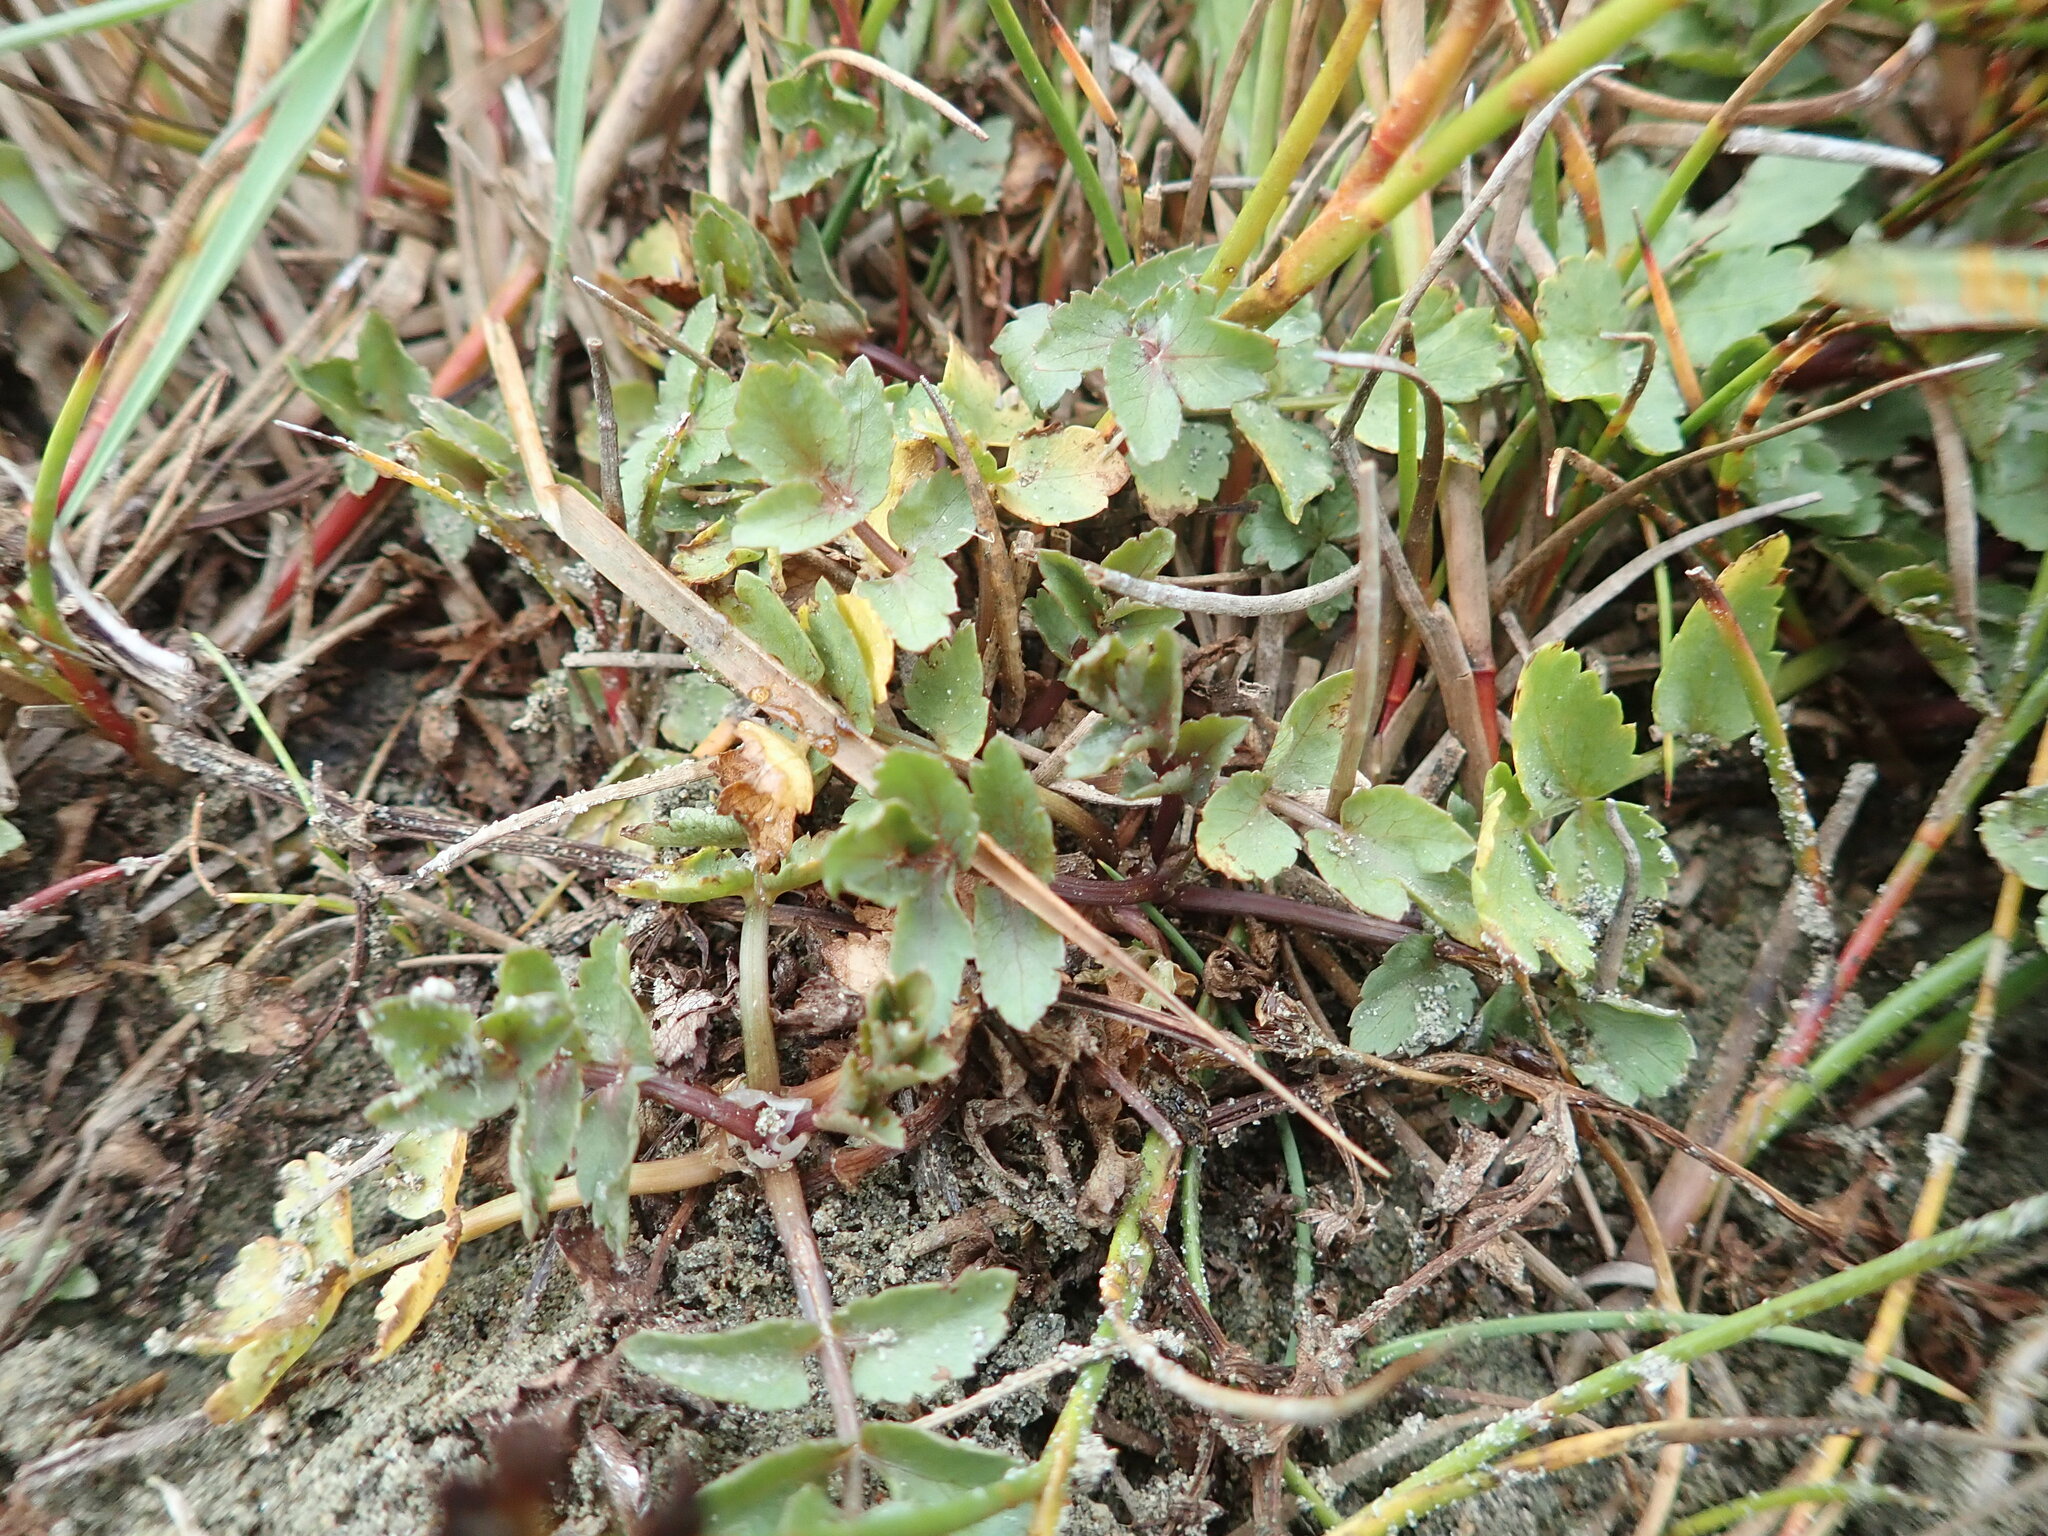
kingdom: Plantae
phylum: Tracheophyta
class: Magnoliopsida
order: Apiales
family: Apiaceae
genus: Helosciadium
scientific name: Helosciadium nodiflorum
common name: Fool's-watercress
